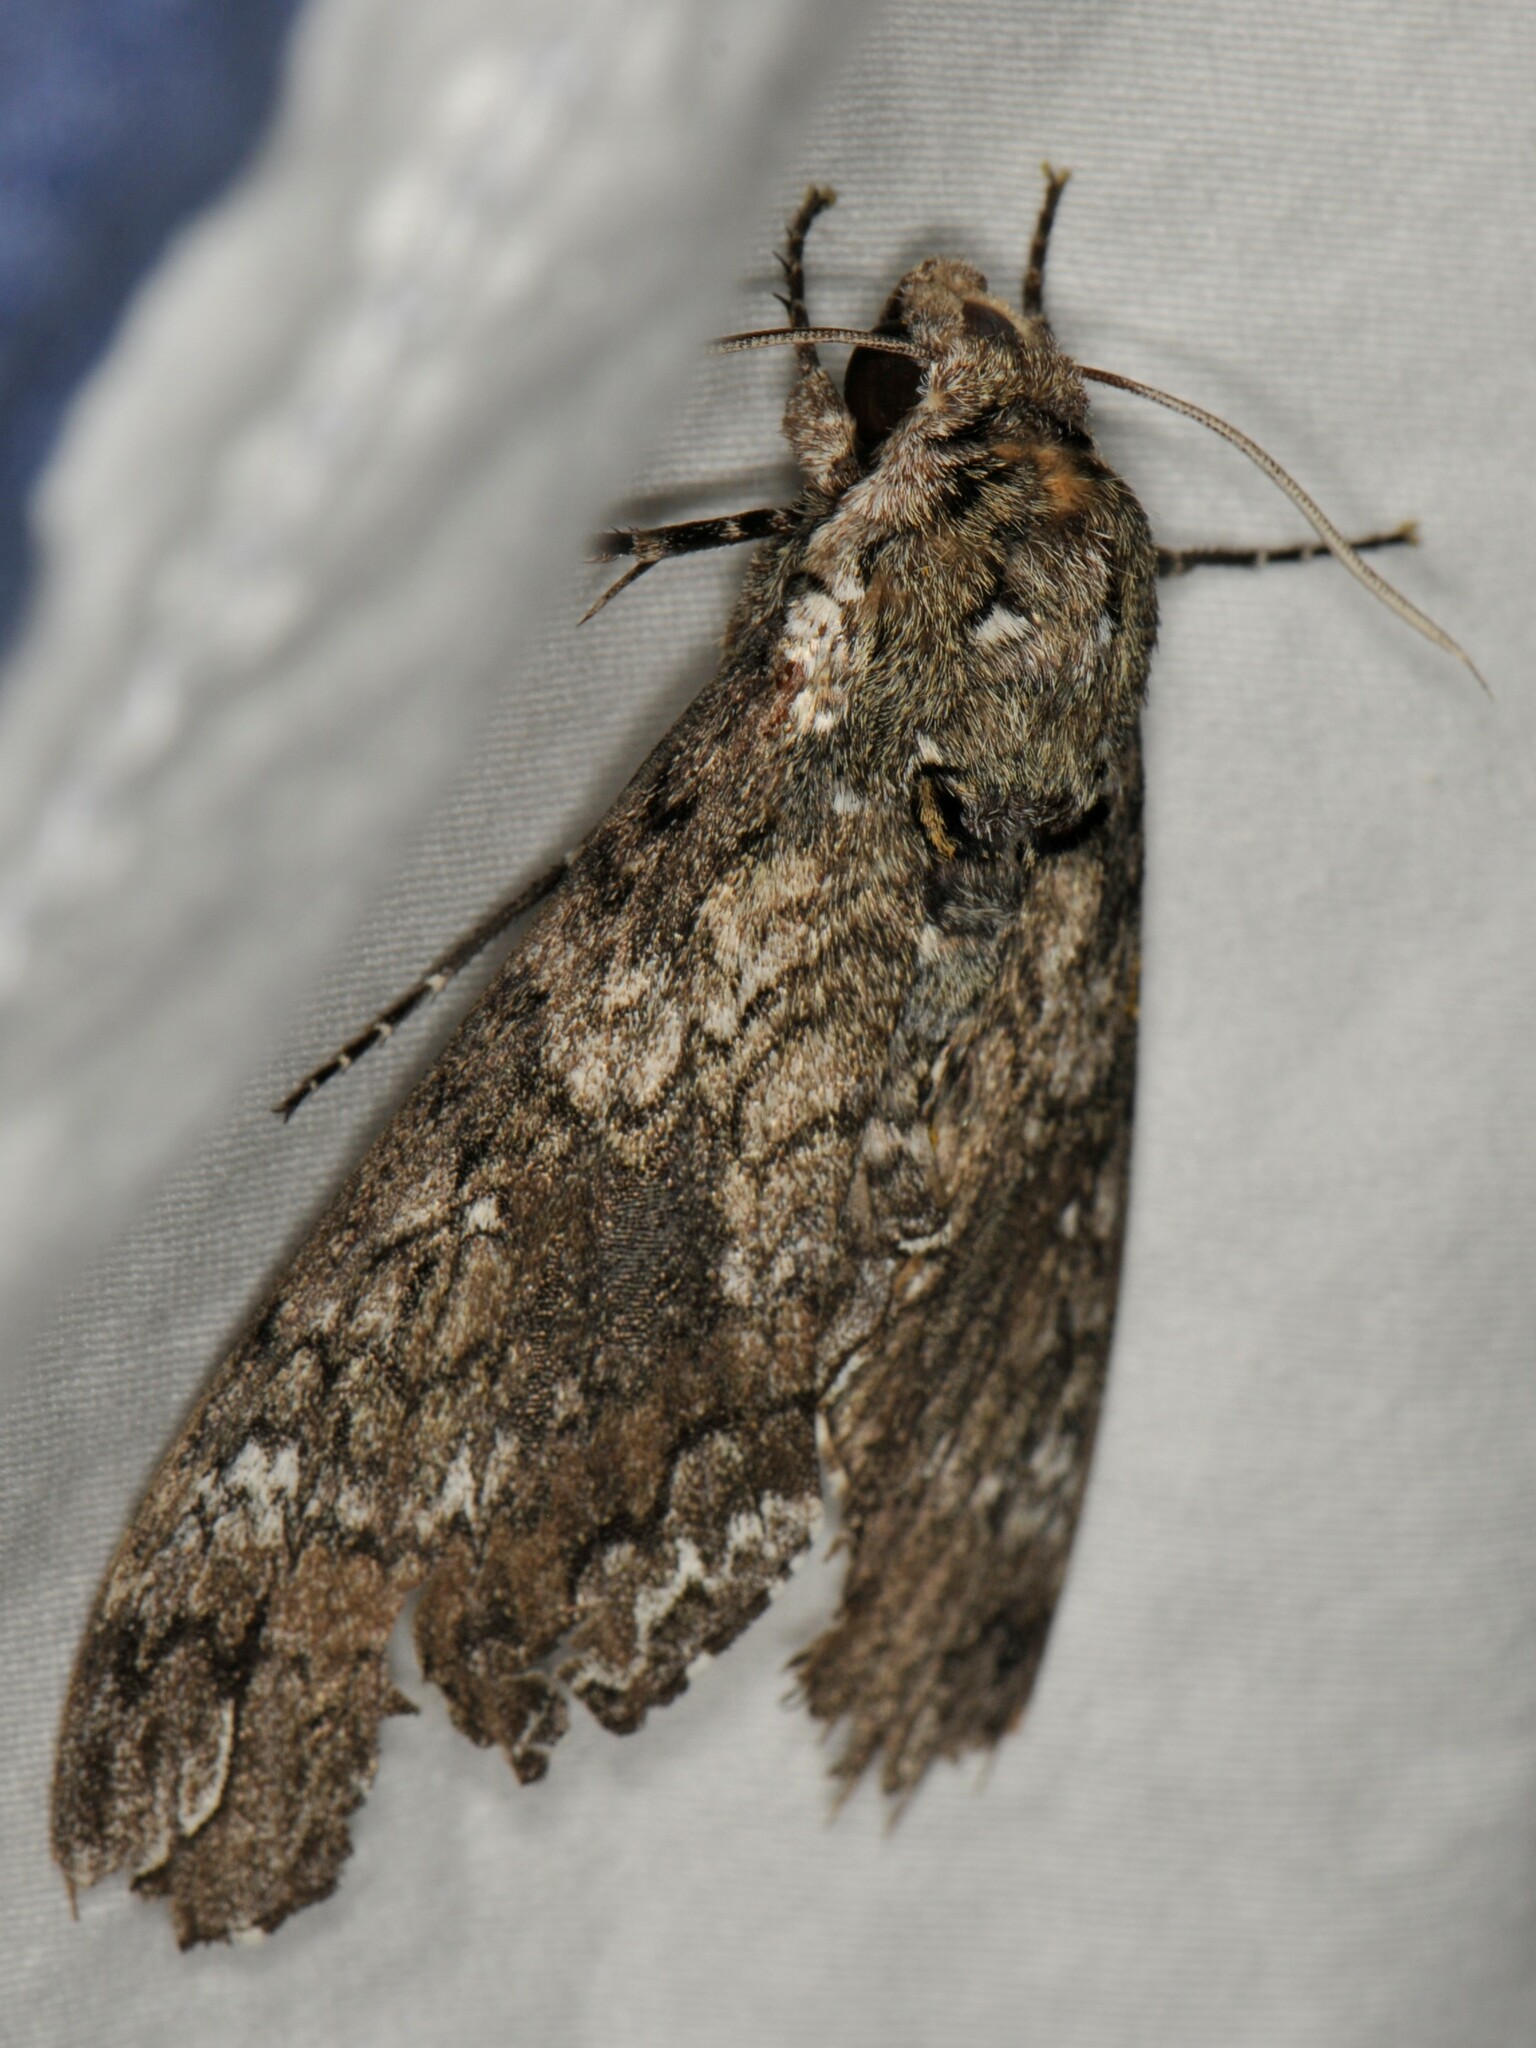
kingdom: Animalia
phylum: Arthropoda
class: Insecta
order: Lepidoptera
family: Sphingidae
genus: Manduca
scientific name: Manduca sexta
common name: Carolina sphinx
